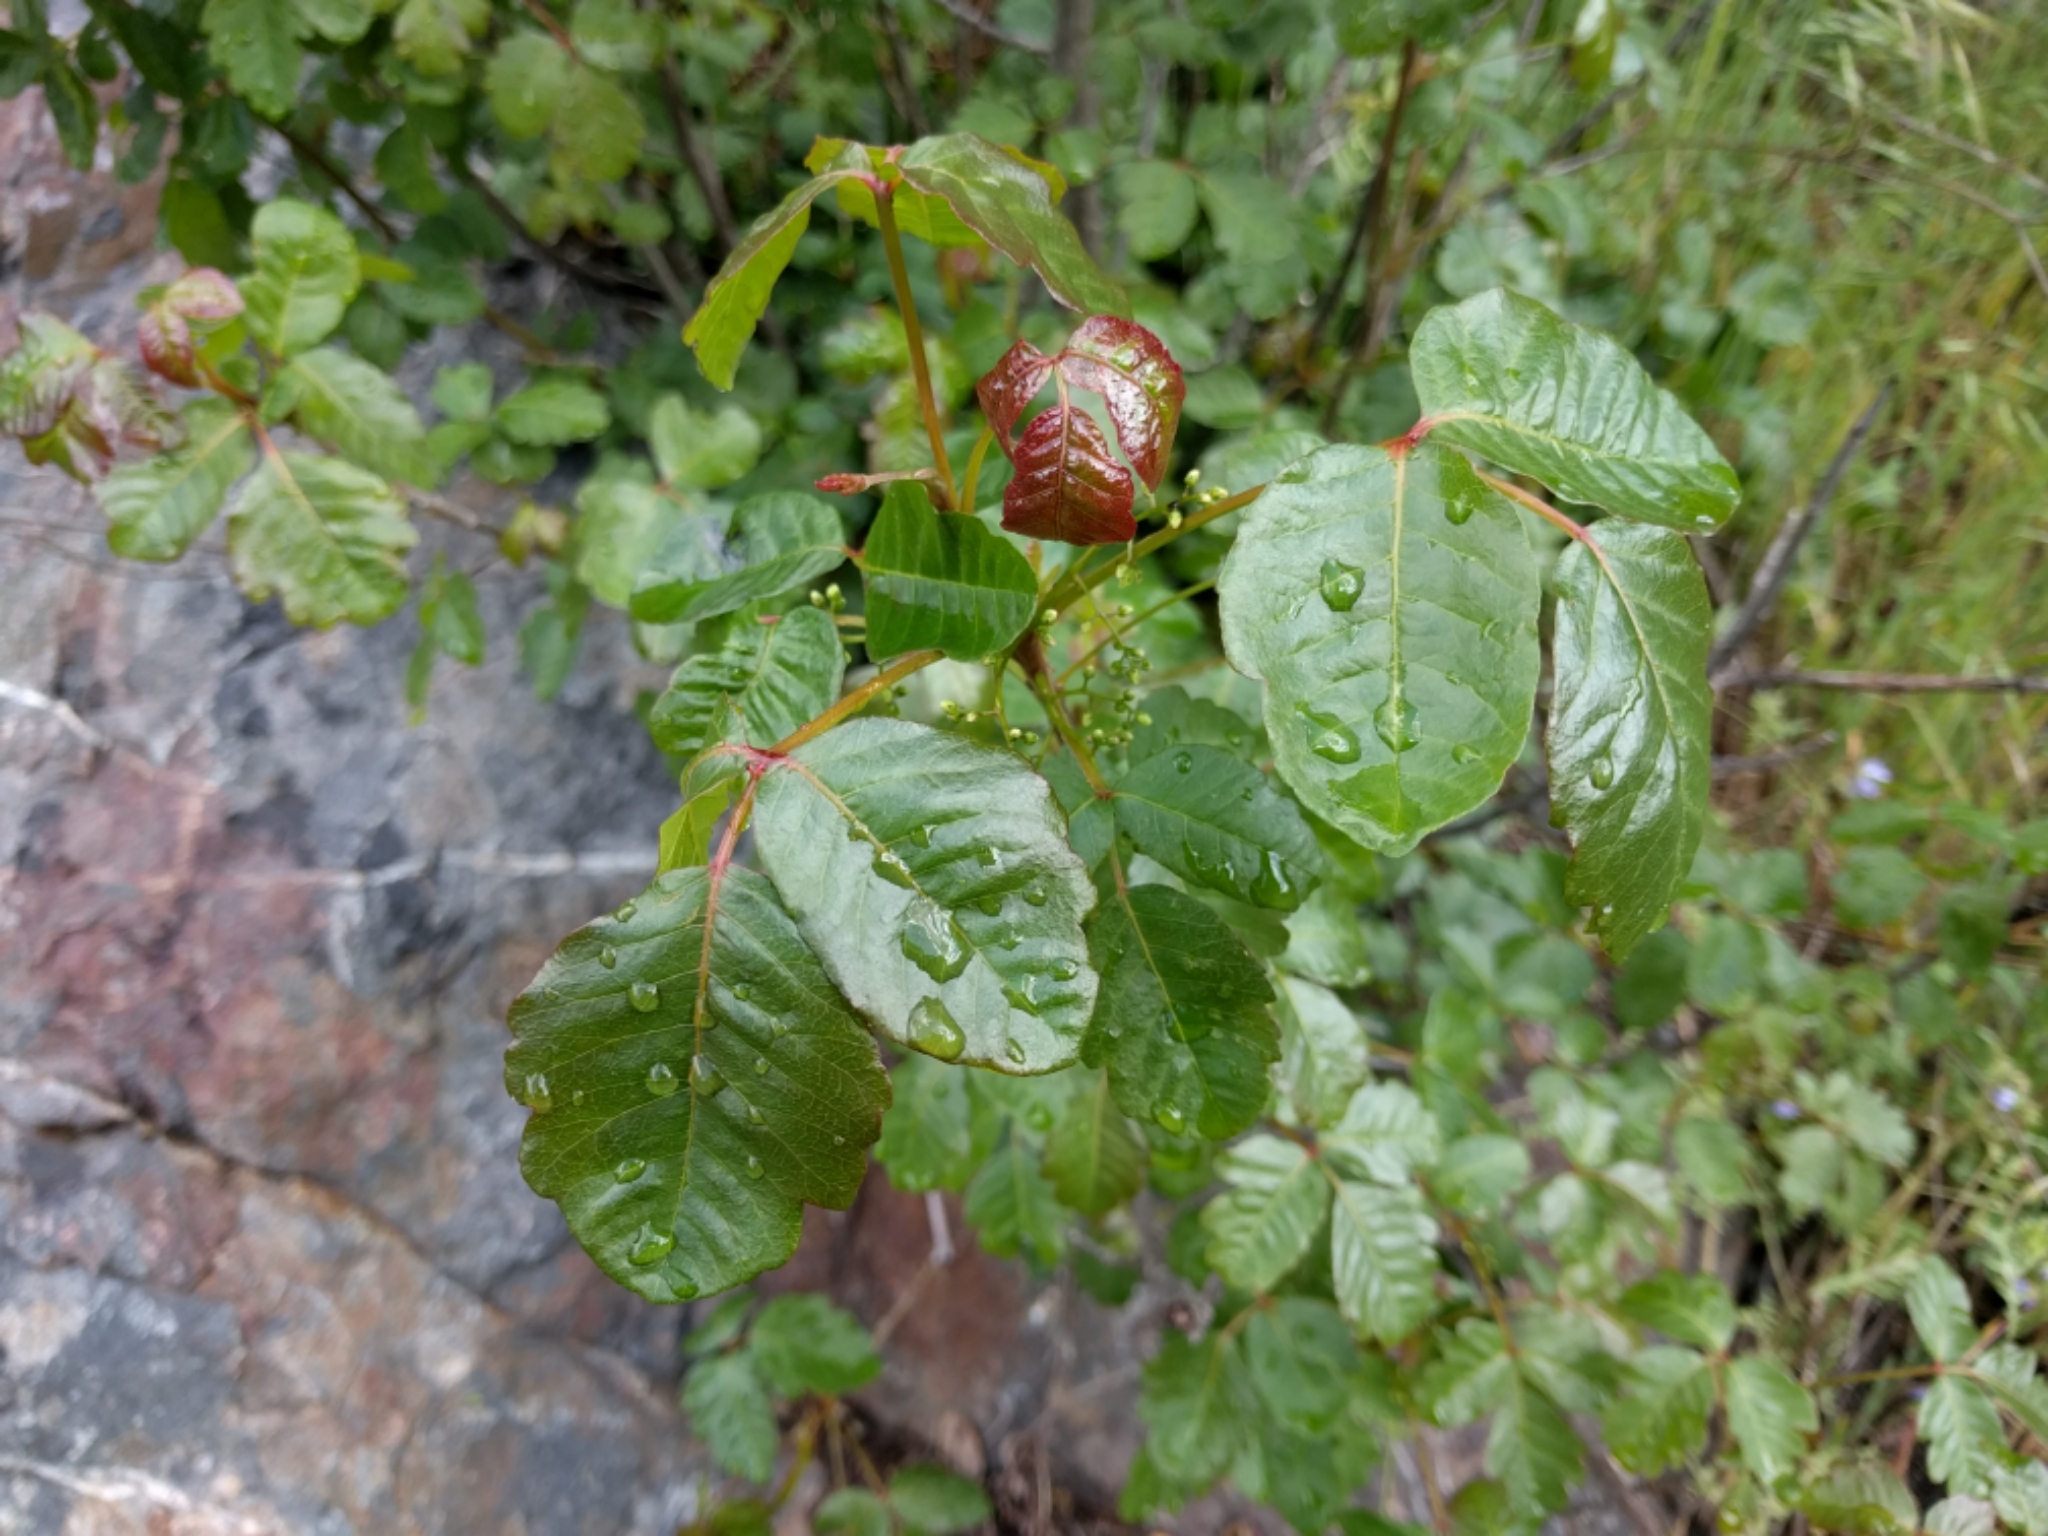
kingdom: Plantae
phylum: Tracheophyta
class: Magnoliopsida
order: Sapindales
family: Anacardiaceae
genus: Toxicodendron
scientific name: Toxicodendron diversilobum
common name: Pacific poison-oak
